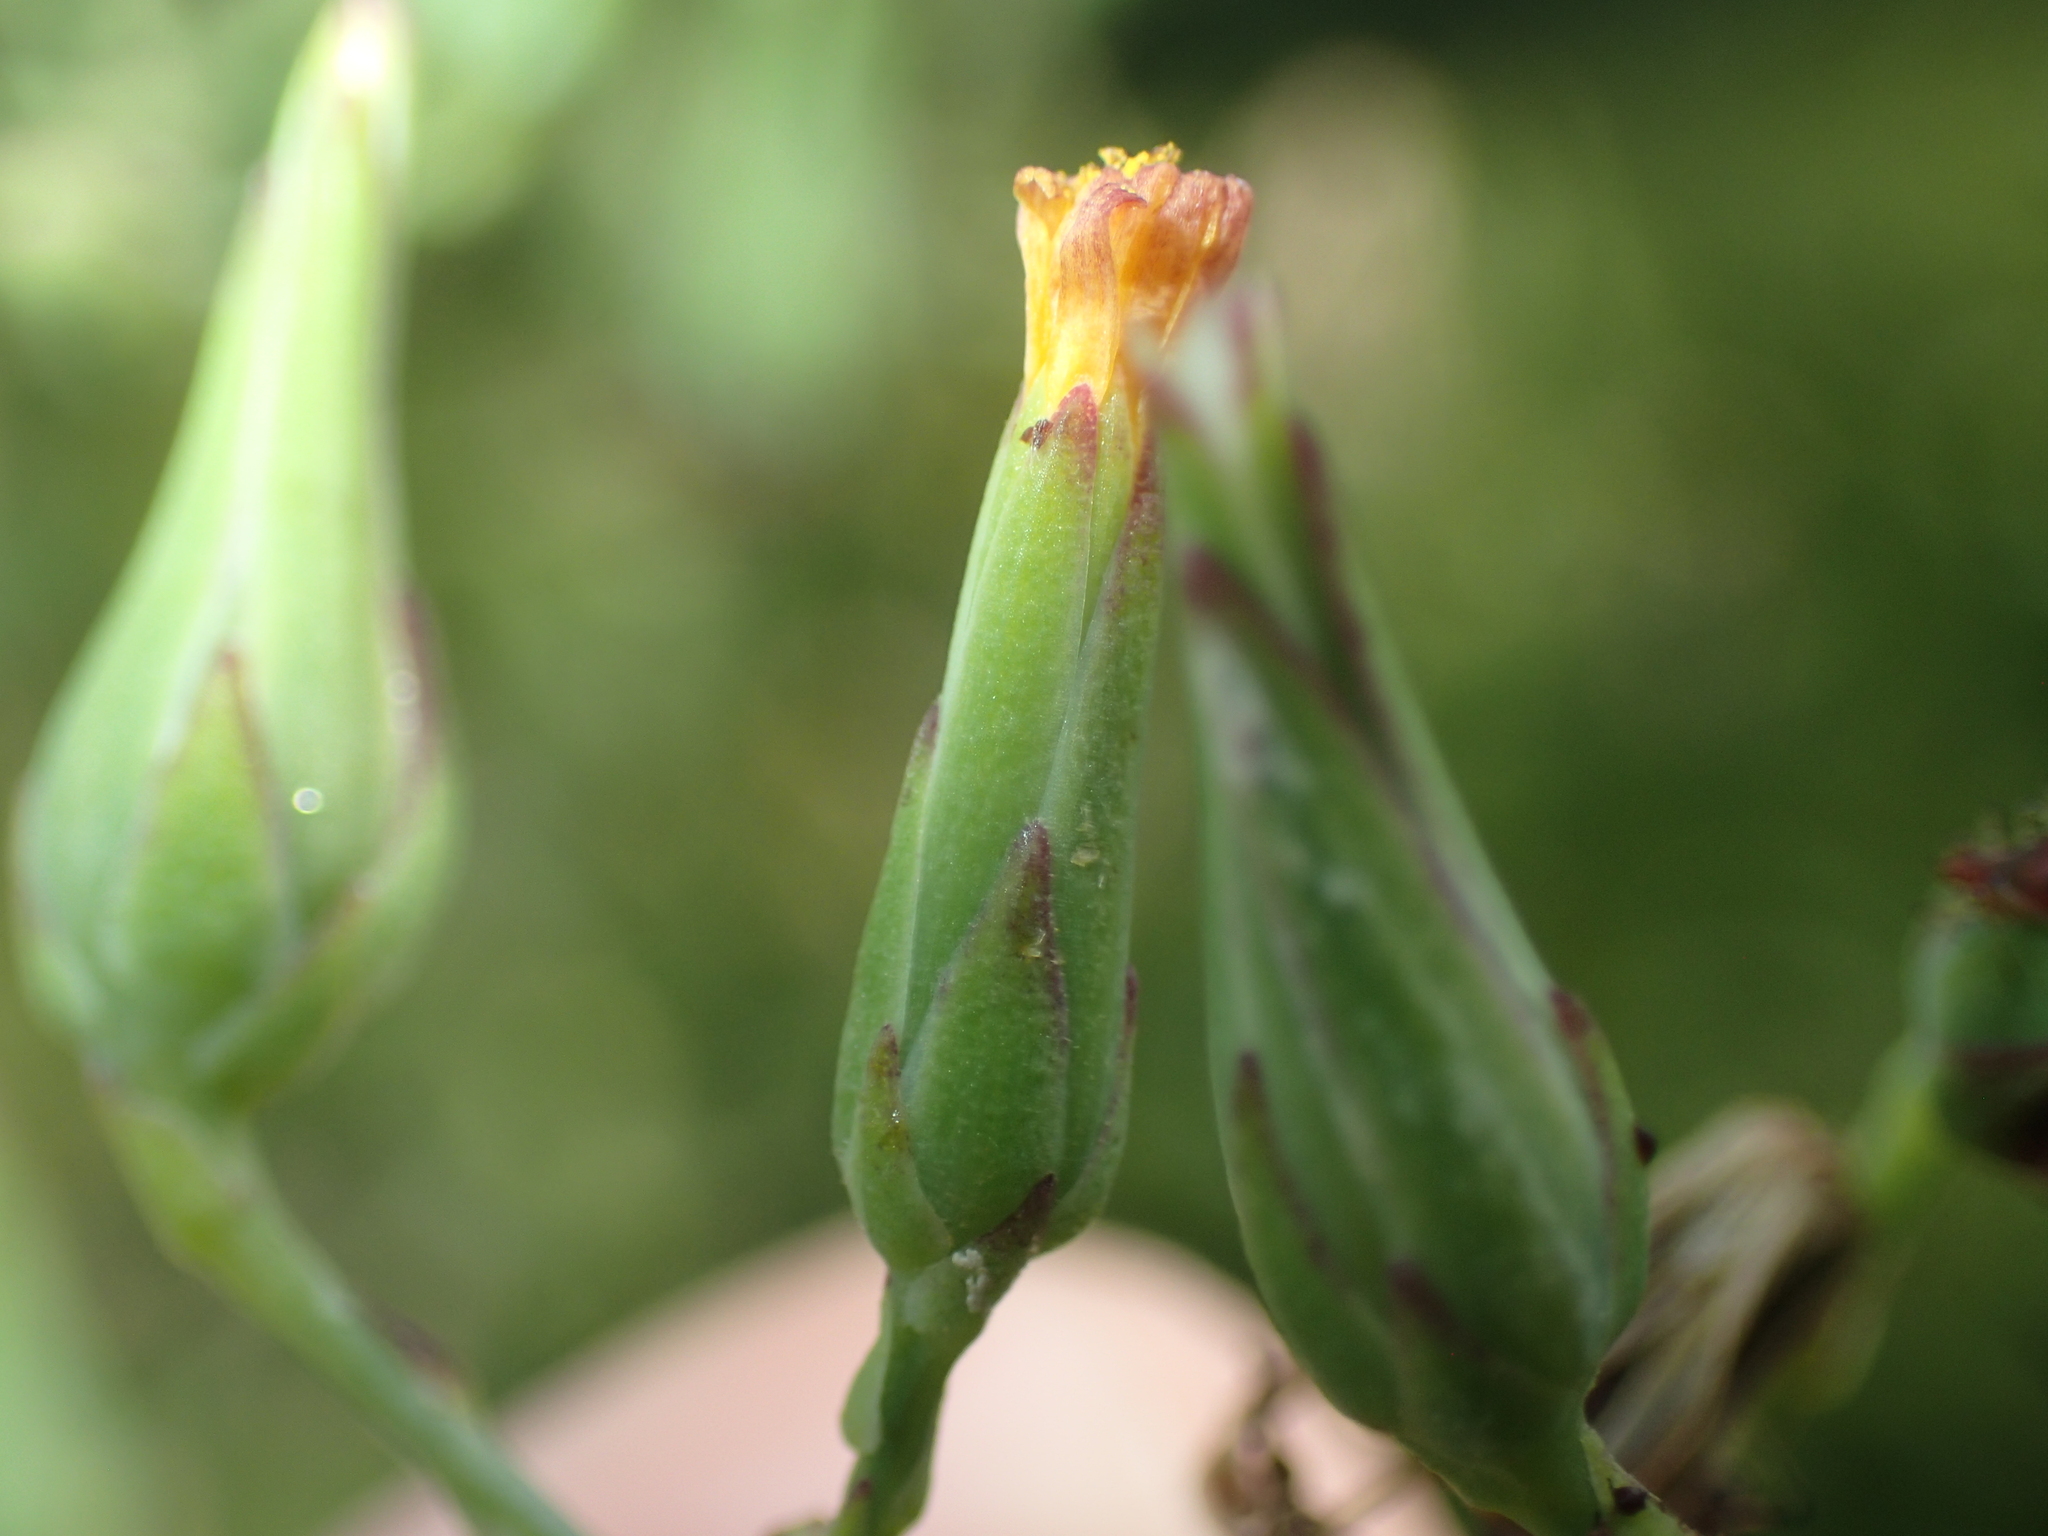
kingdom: Plantae
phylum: Tracheophyta
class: Magnoliopsida
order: Asterales
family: Asteraceae
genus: Lactuca
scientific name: Lactuca canadensis
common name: Canada lettuce
